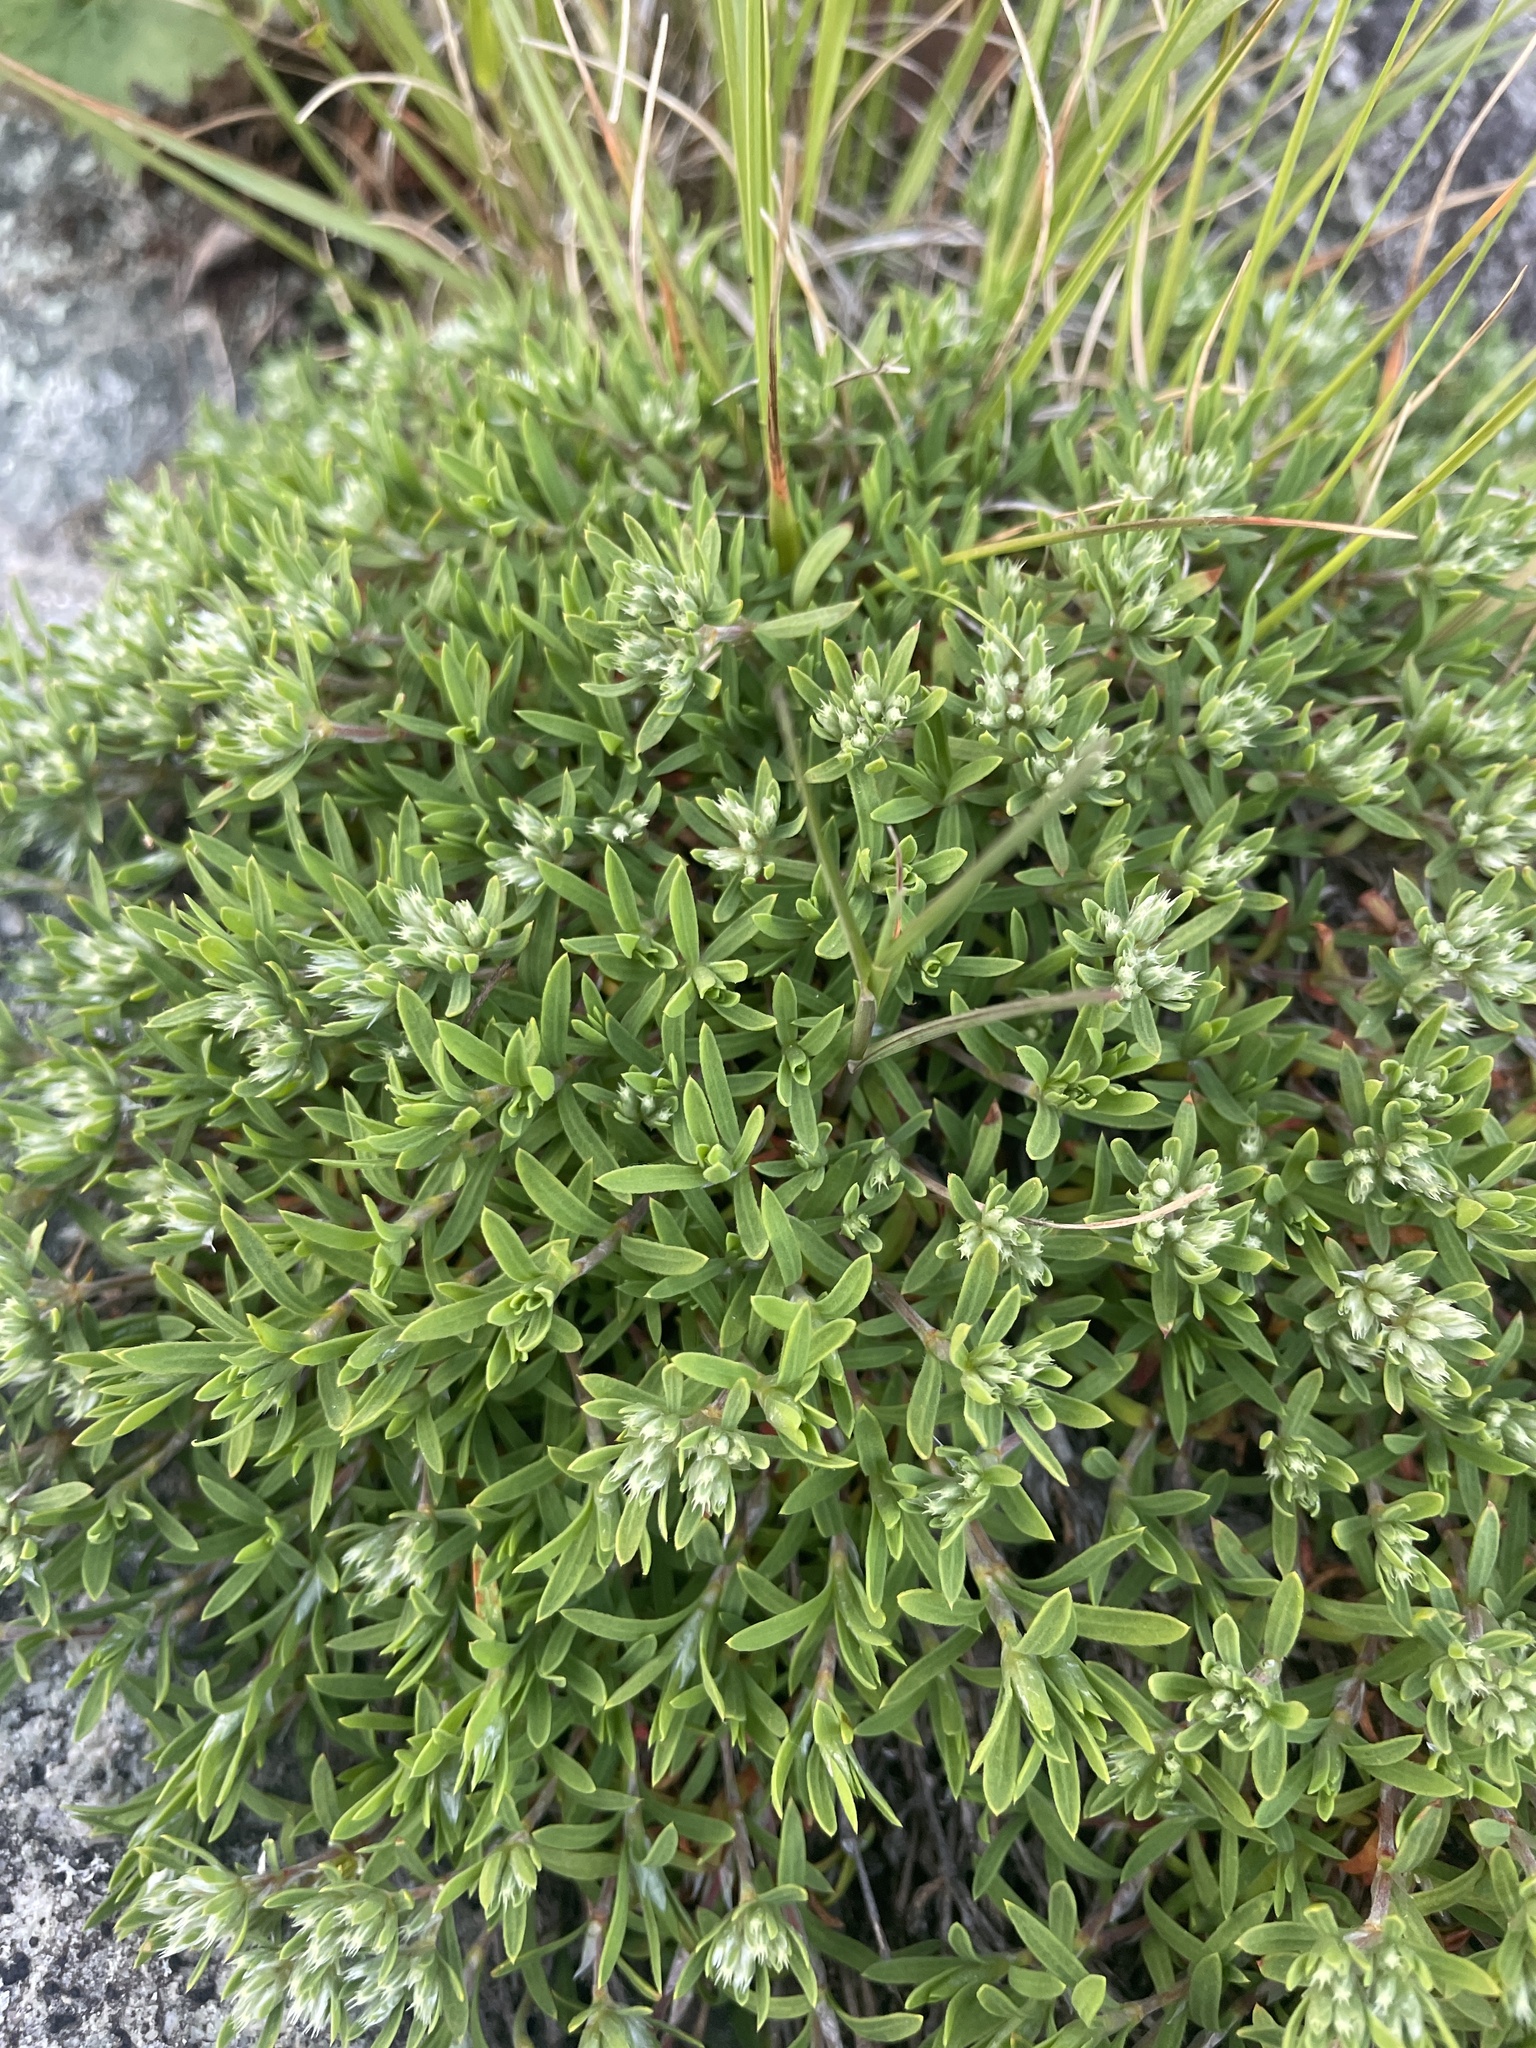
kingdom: Plantae
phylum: Tracheophyta
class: Magnoliopsida
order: Caryophyllales
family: Caryophyllaceae
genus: Paronychia
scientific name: Paronychia argyrocoma
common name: Silverling
